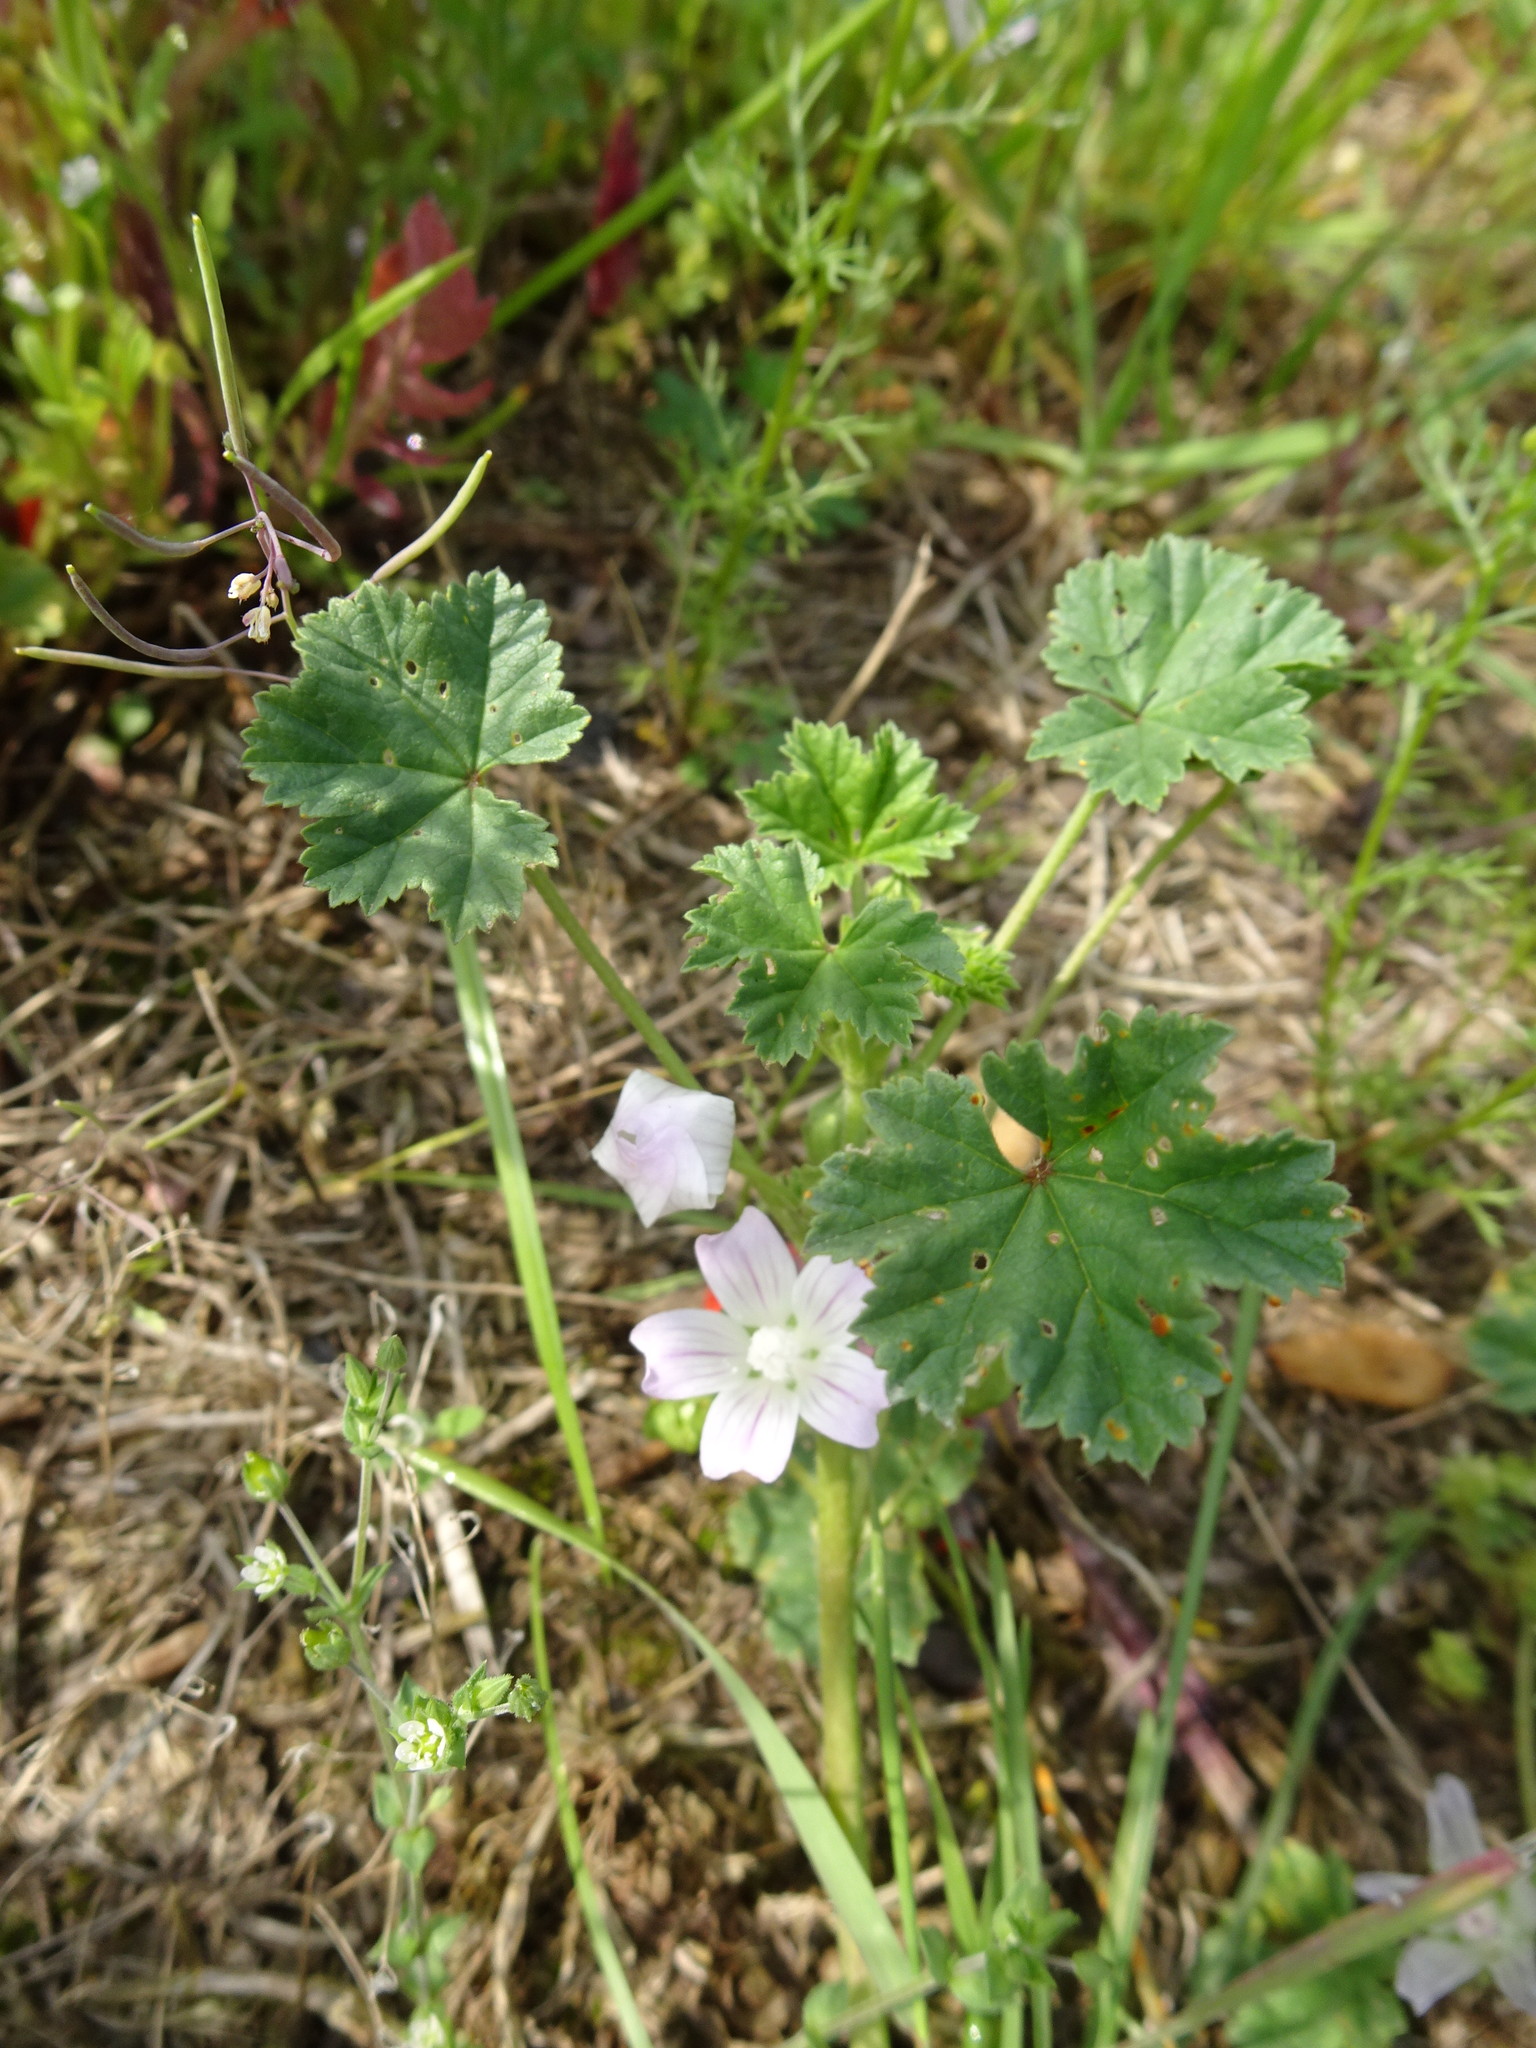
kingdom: Plantae
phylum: Tracheophyta
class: Magnoliopsida
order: Malvales
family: Malvaceae
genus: Malva
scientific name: Malva neglecta
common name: Common mallow
